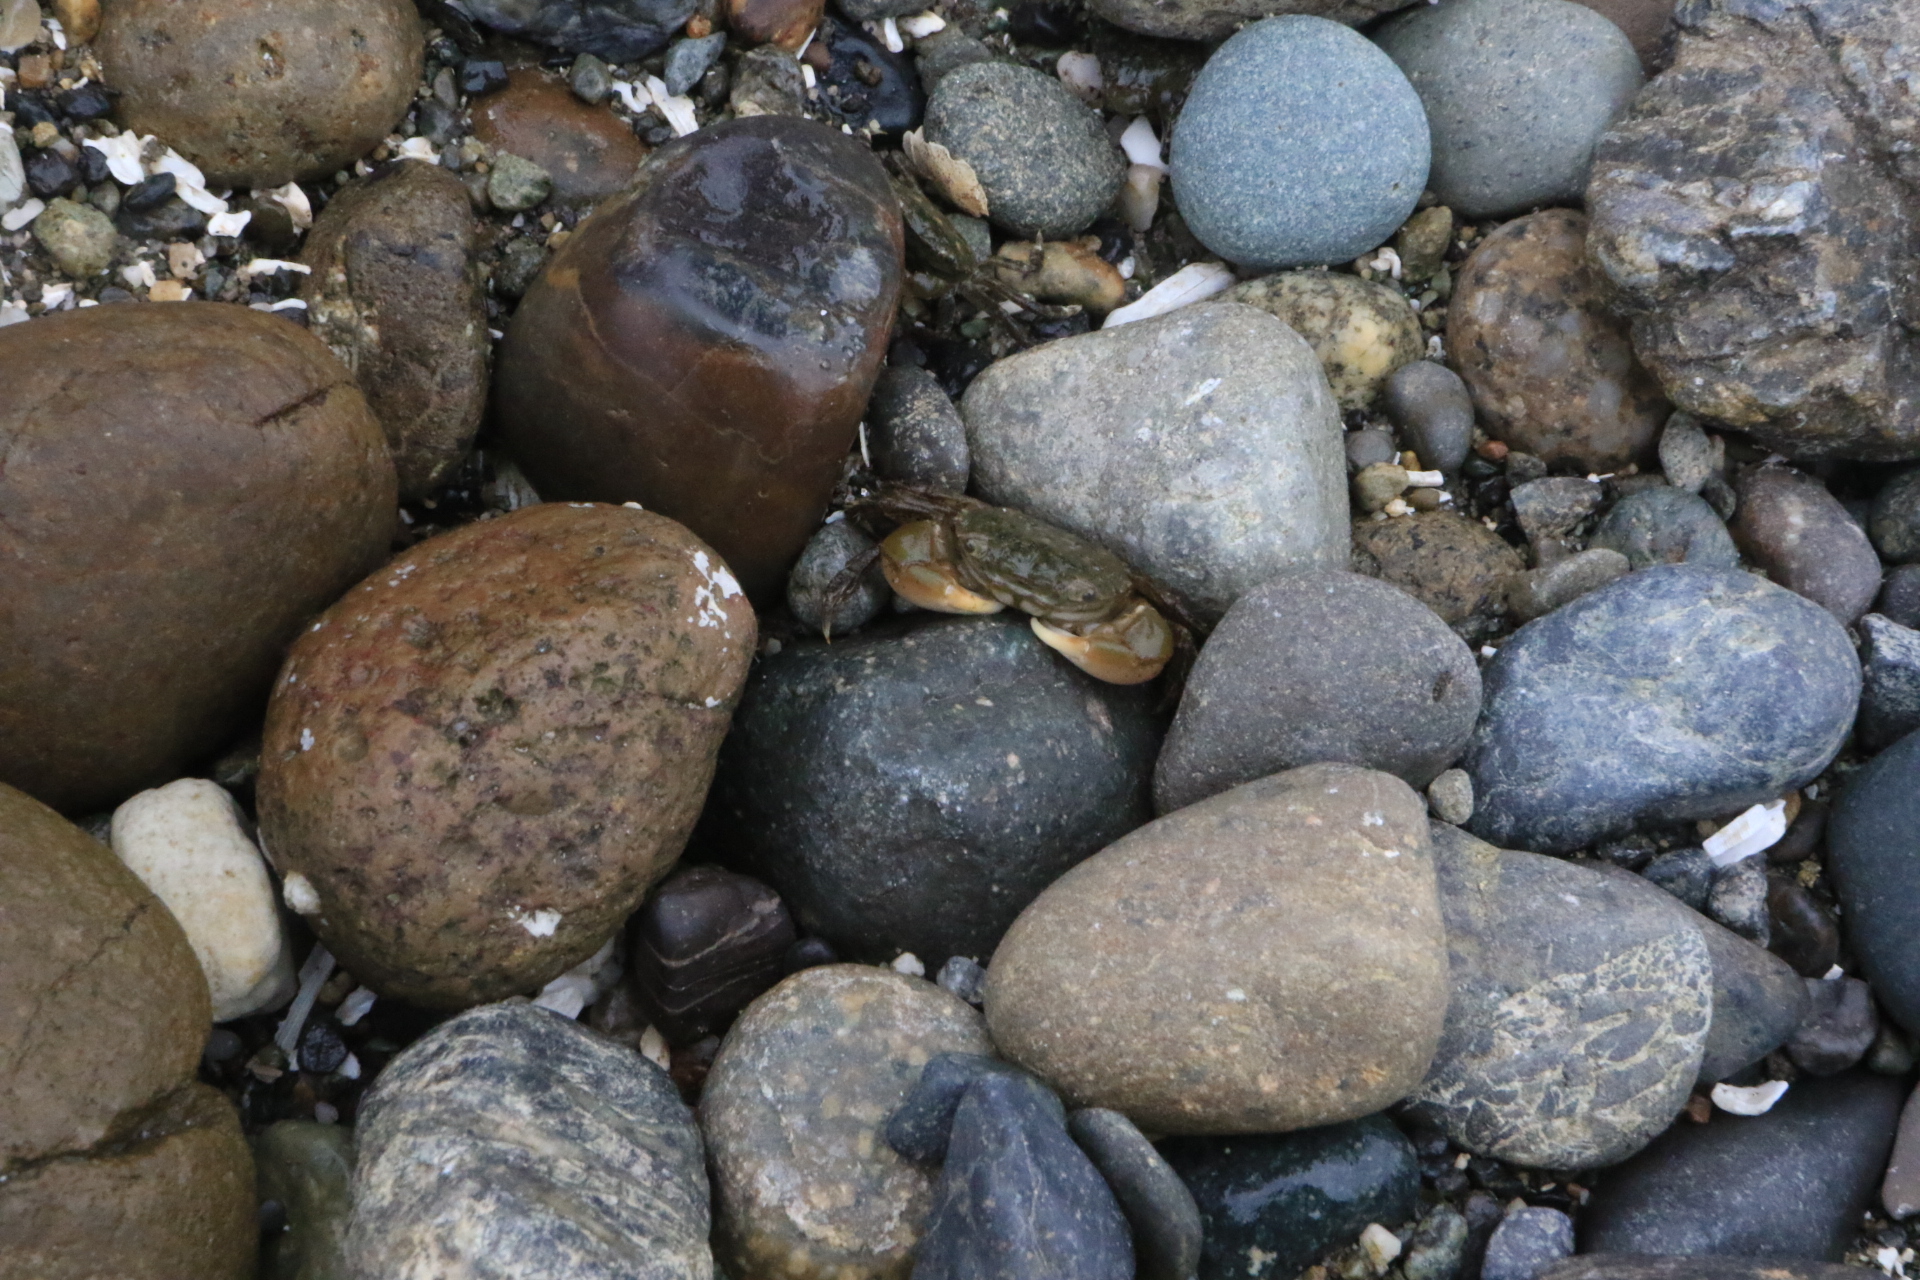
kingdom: Animalia
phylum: Arthropoda
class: Malacostraca
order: Decapoda
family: Varunidae
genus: Hemigrapsus
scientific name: Hemigrapsus oregonensis
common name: Yellow shore crab
